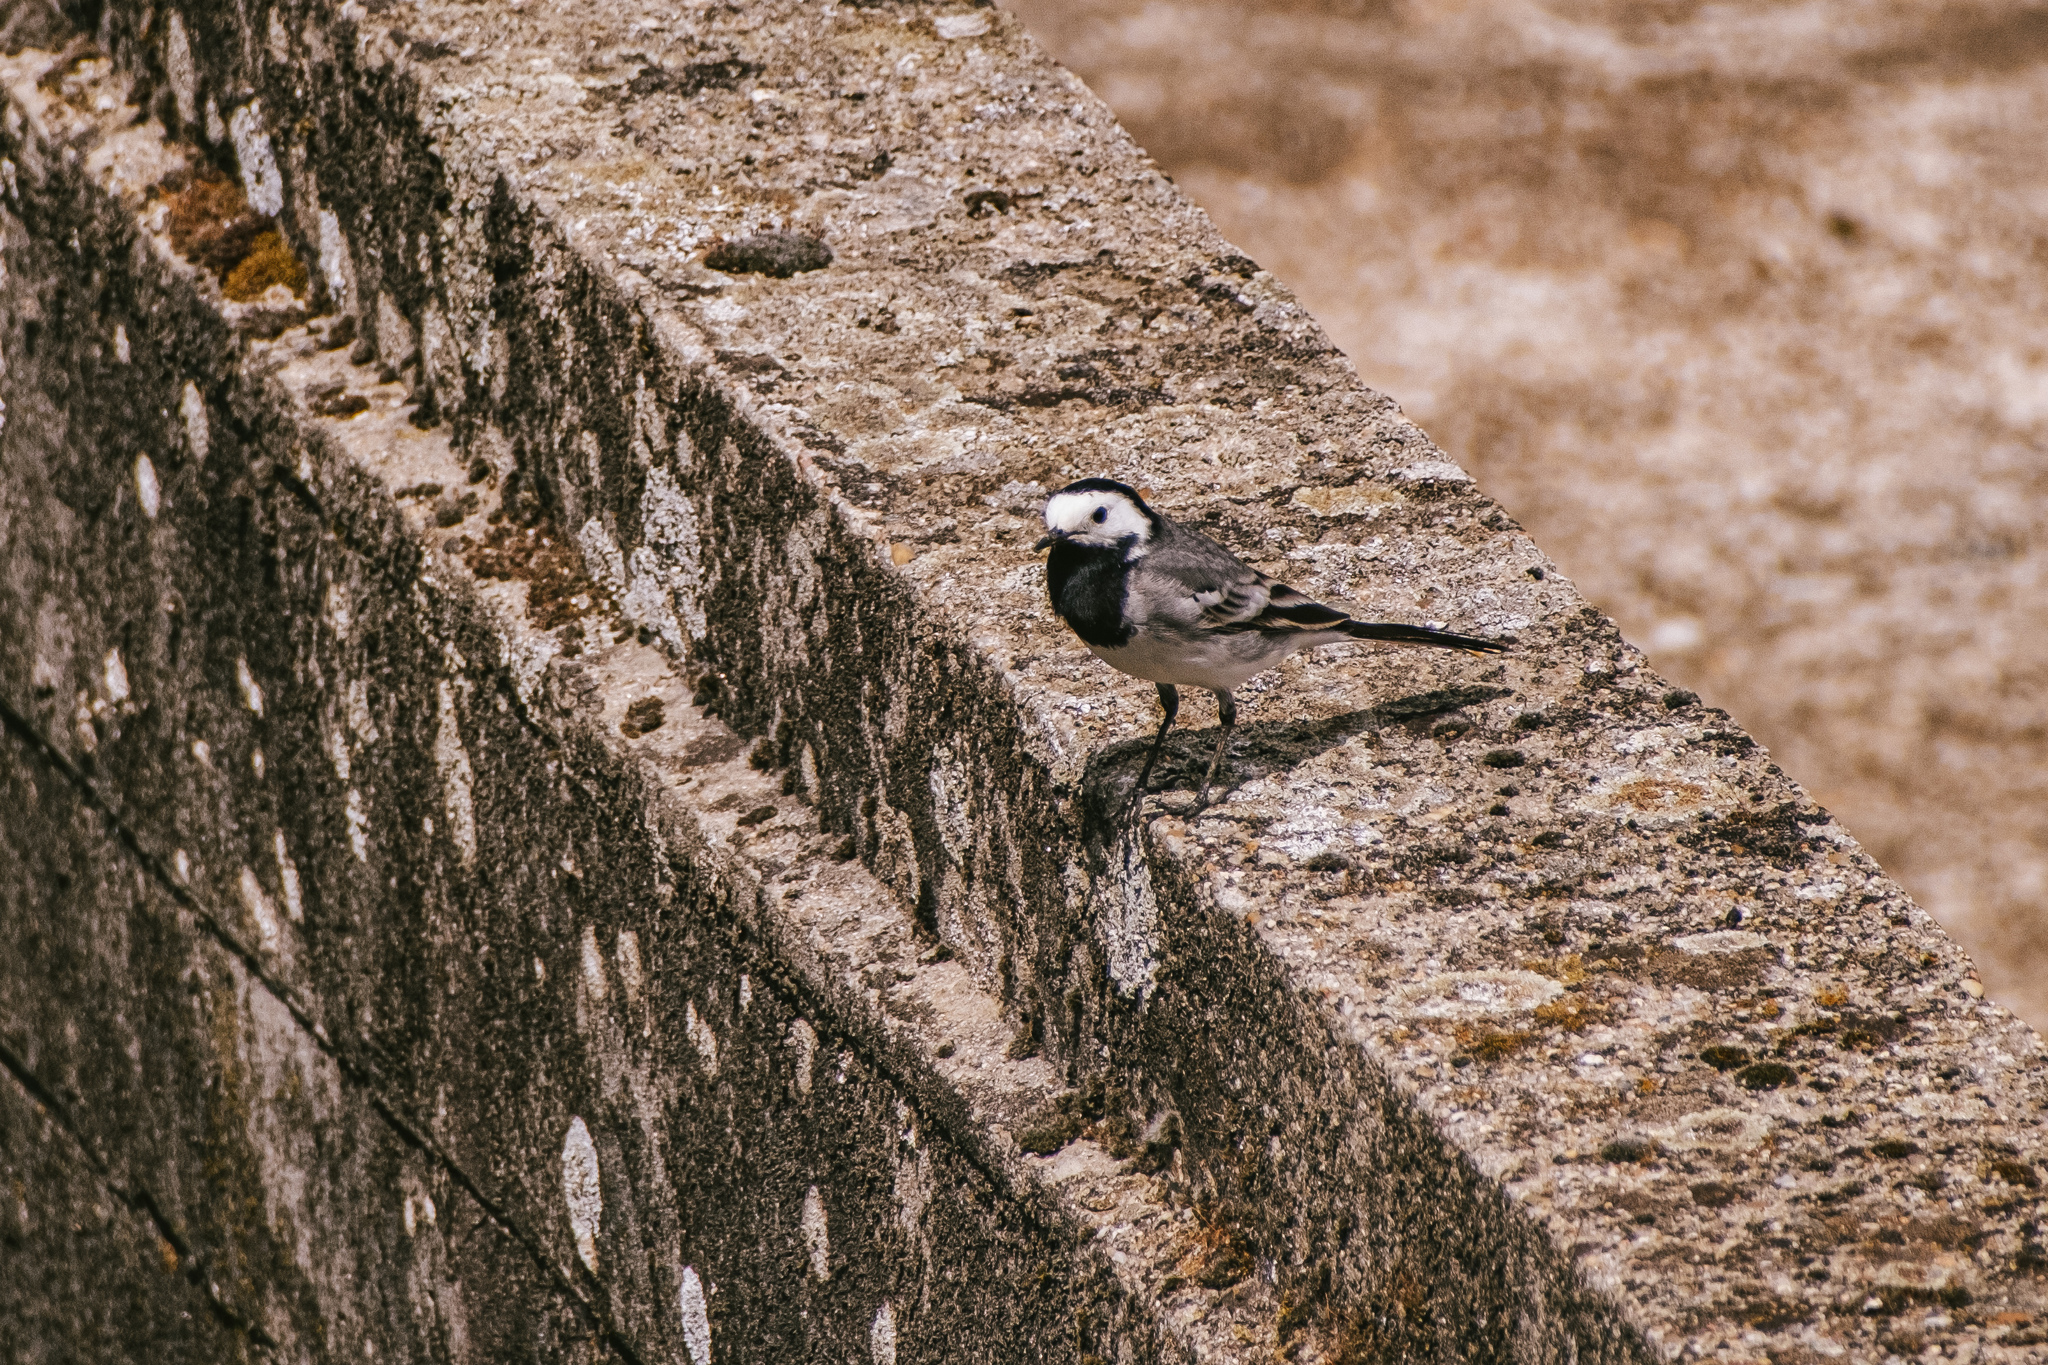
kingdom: Animalia
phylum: Chordata
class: Aves
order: Passeriformes
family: Motacillidae
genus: Motacilla
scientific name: Motacilla alba
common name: White wagtail
